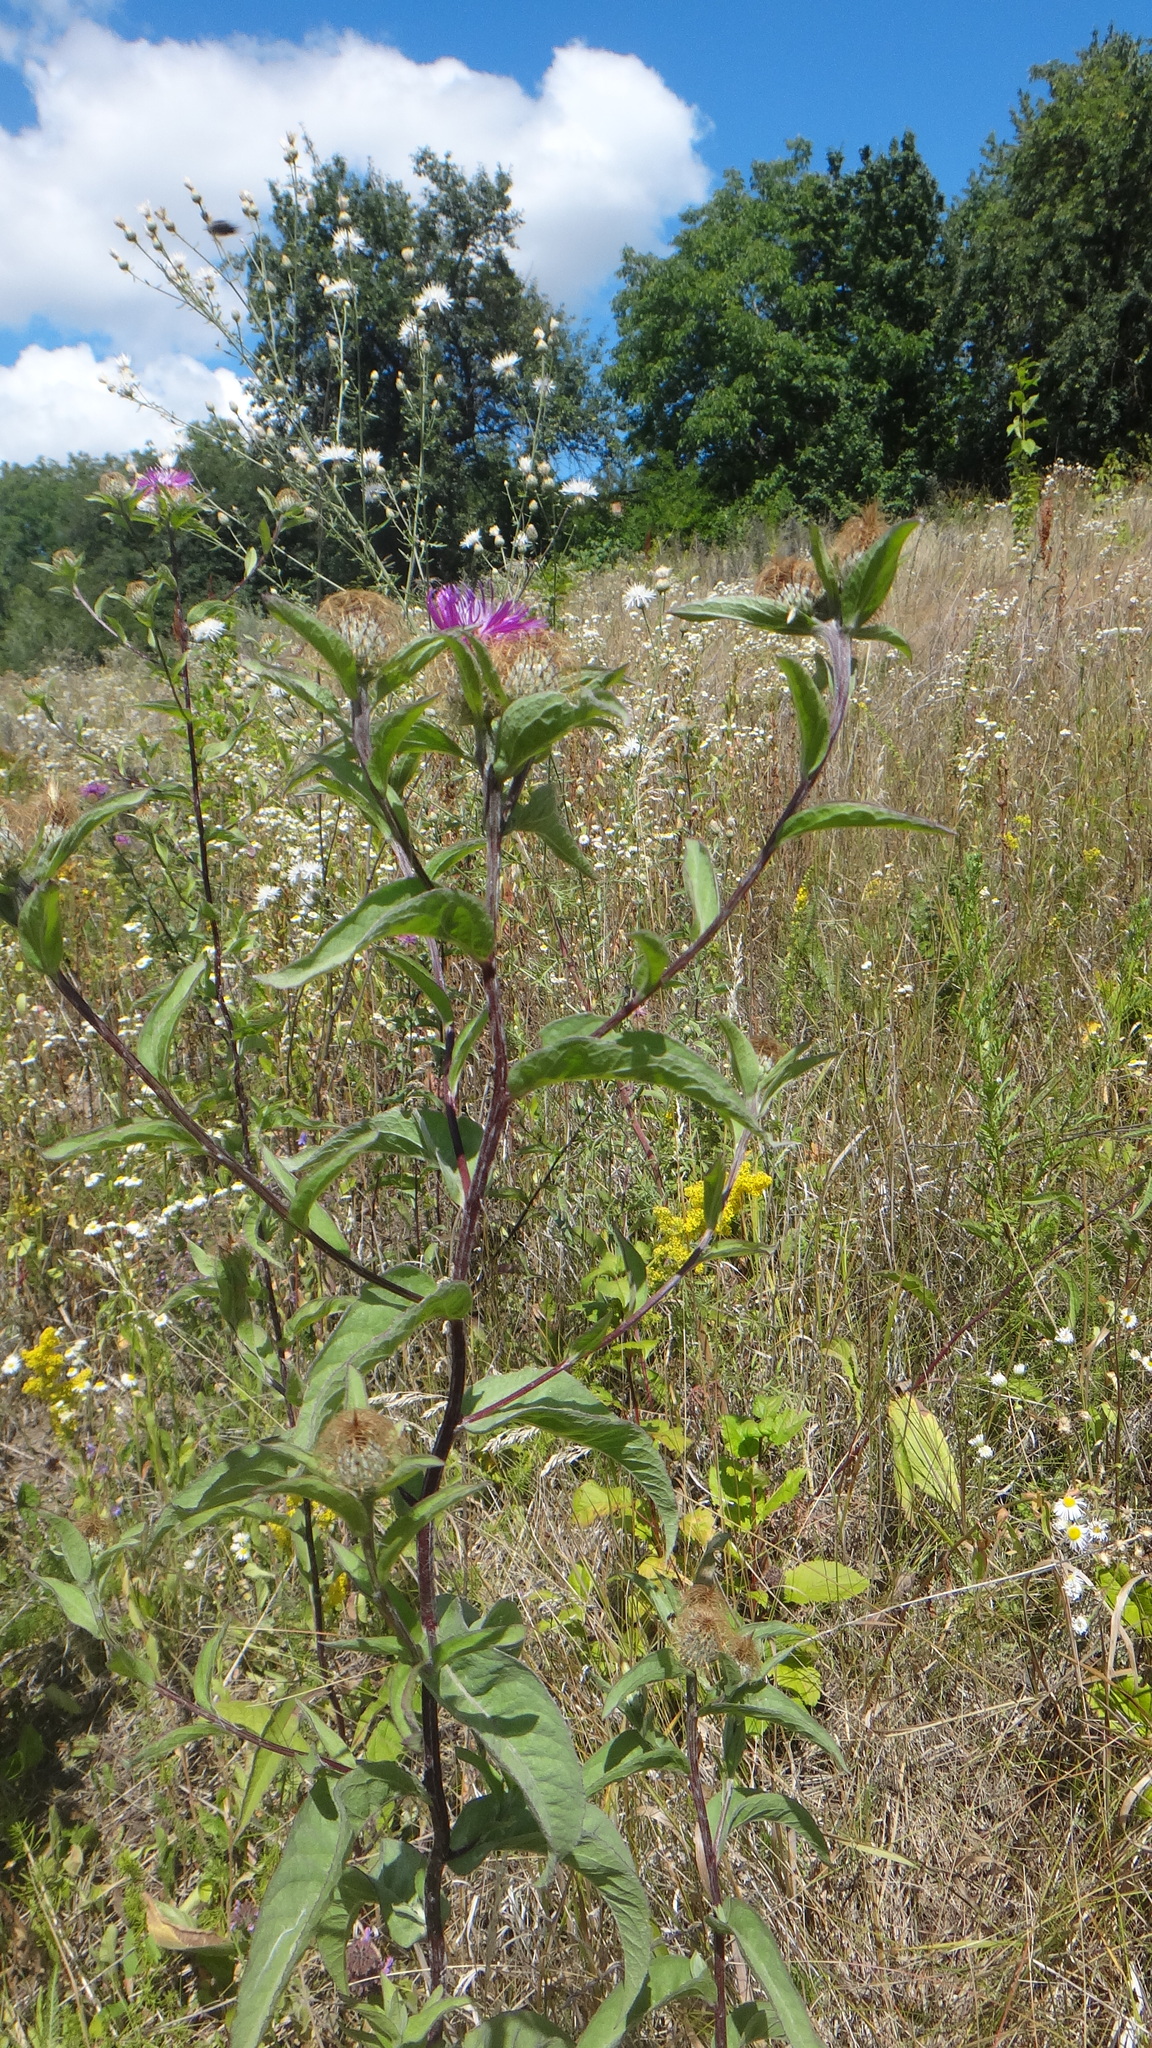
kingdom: Plantae
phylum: Tracheophyta
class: Magnoliopsida
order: Asterales
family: Asteraceae
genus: Centaurea
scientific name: Centaurea phrygia
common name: Wig knapweed
